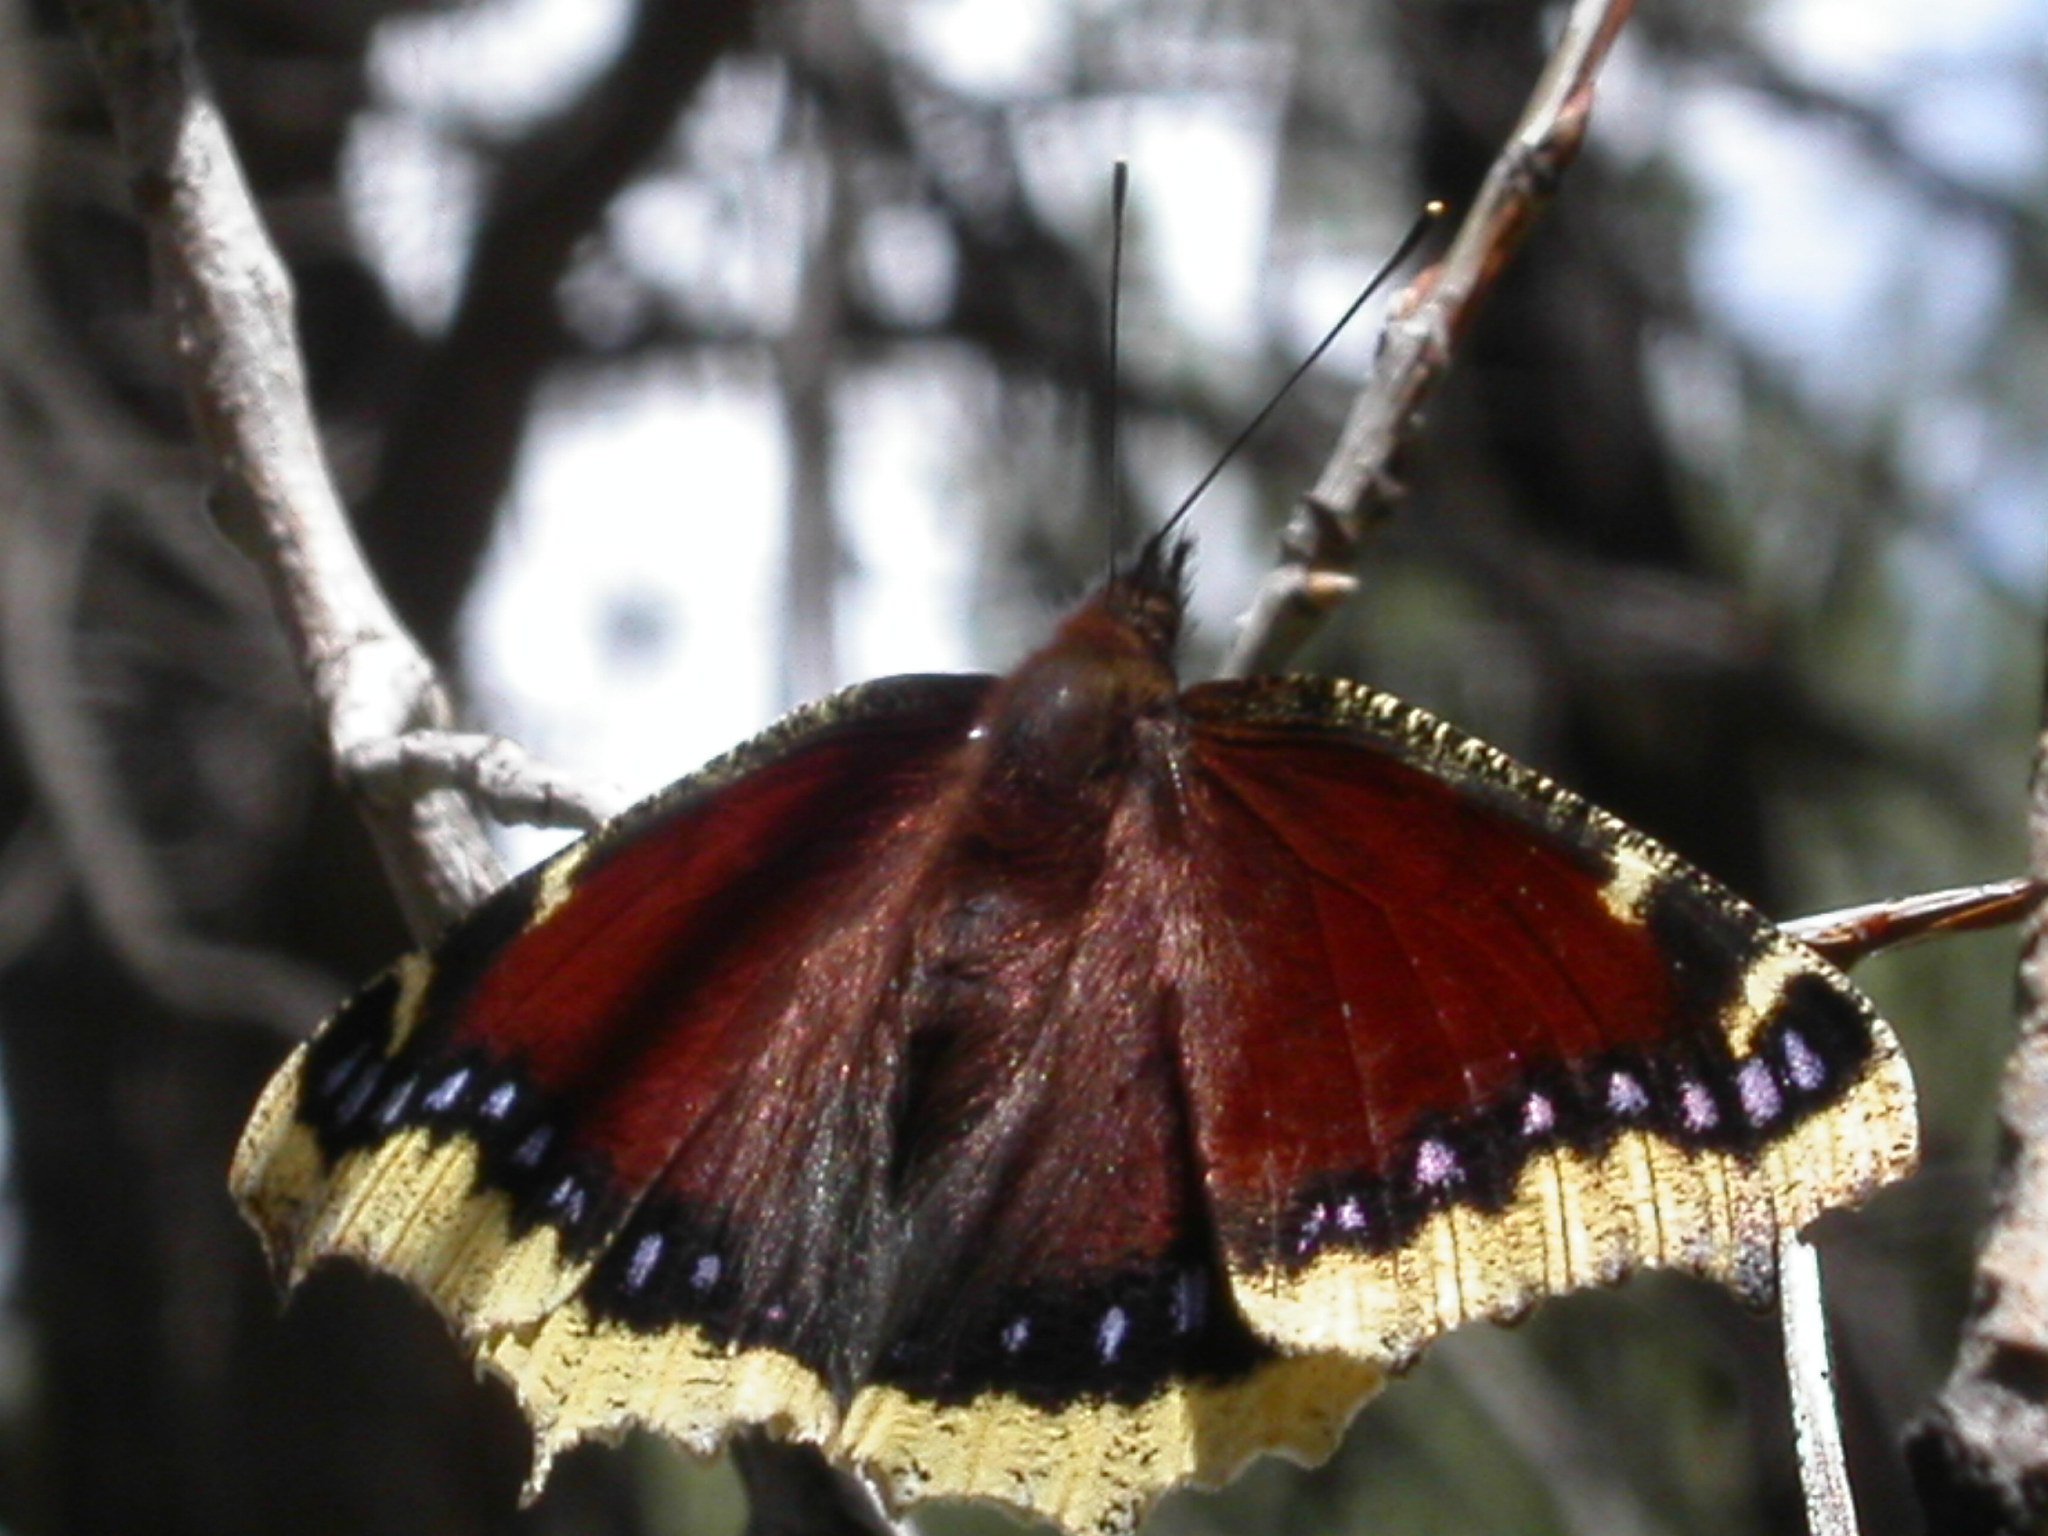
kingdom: Animalia
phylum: Arthropoda
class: Insecta
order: Lepidoptera
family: Nymphalidae
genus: Nymphalis
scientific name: Nymphalis antiopa
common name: Camberwell beauty
